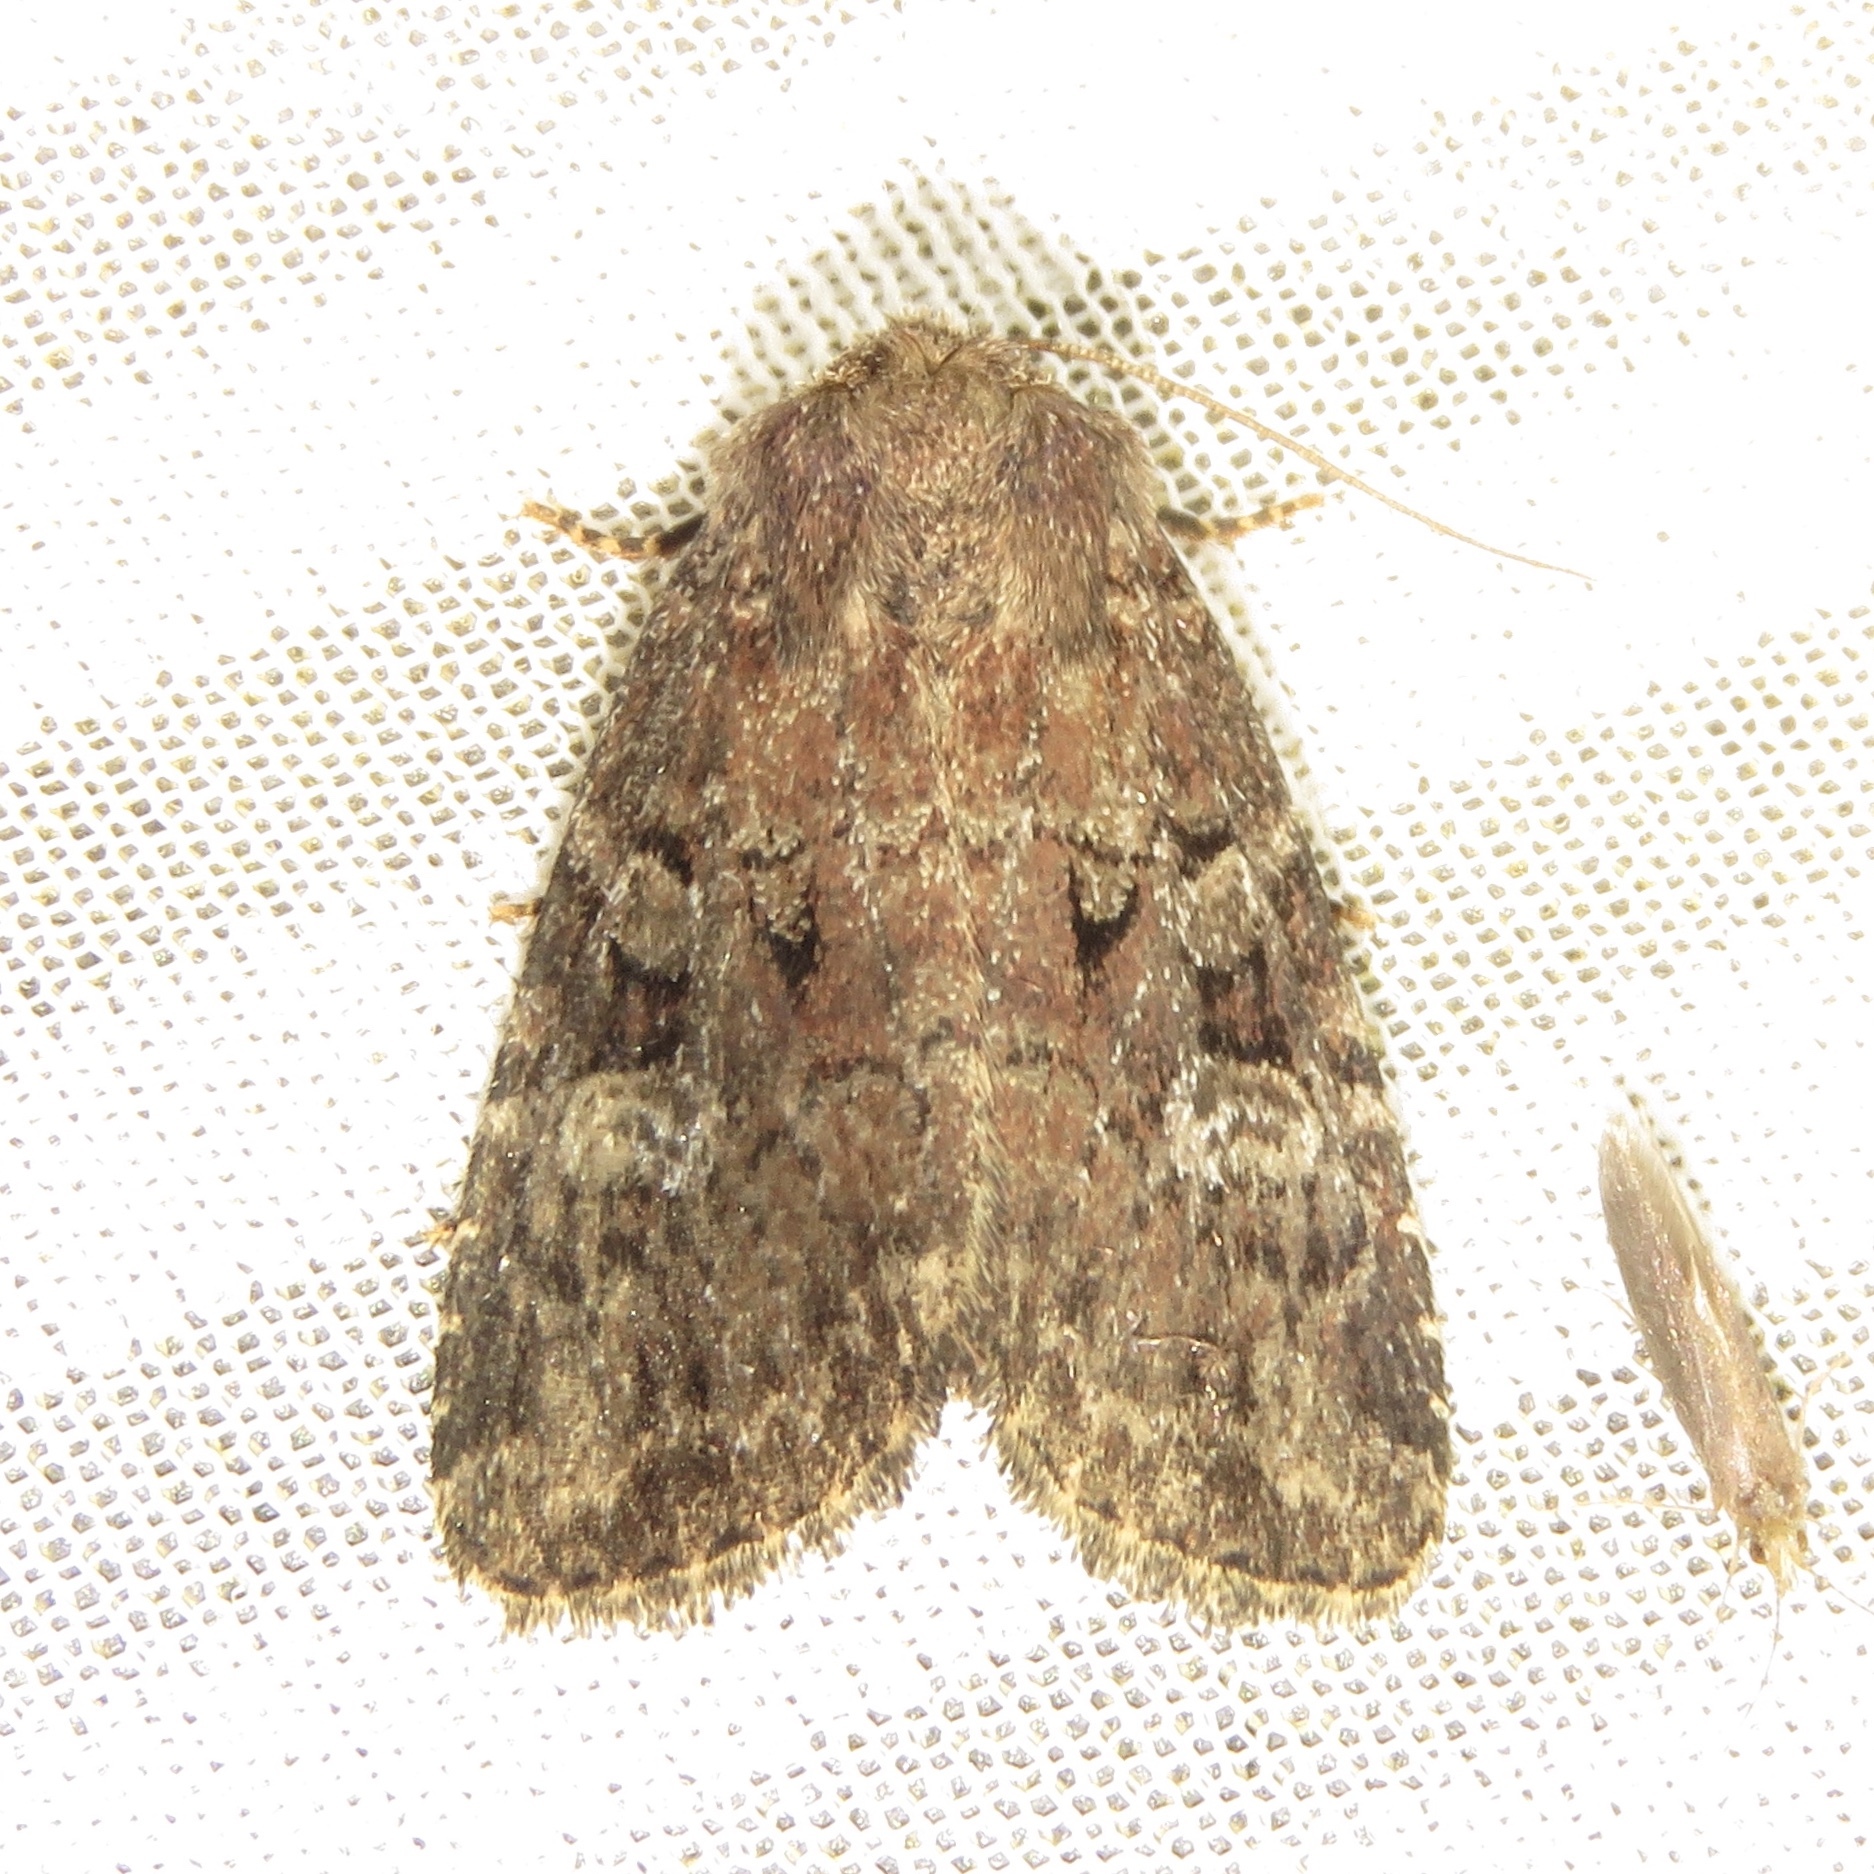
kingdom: Animalia
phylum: Arthropoda
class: Insecta
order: Lepidoptera
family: Noctuidae
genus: Orthodes
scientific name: Orthodes goodelli
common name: Goodell's arches moth
